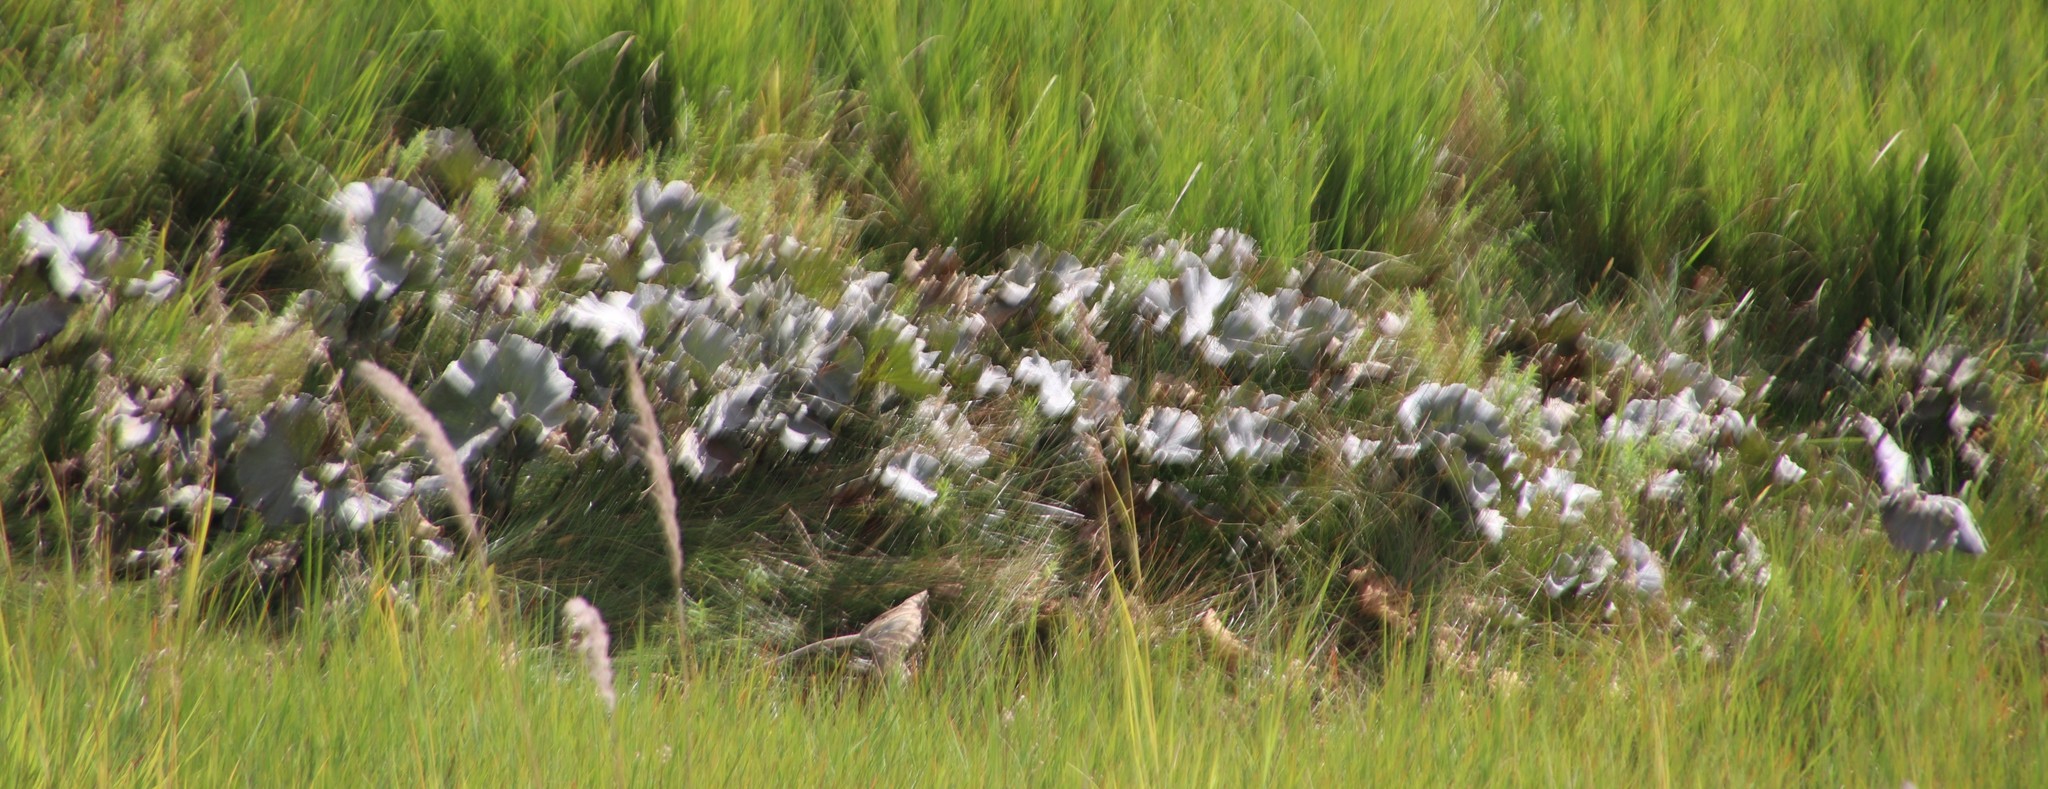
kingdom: Plantae
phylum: Tracheophyta
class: Magnoliopsida
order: Gunnerales
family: Gunneraceae
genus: Gunnera
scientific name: Gunnera perpensa
